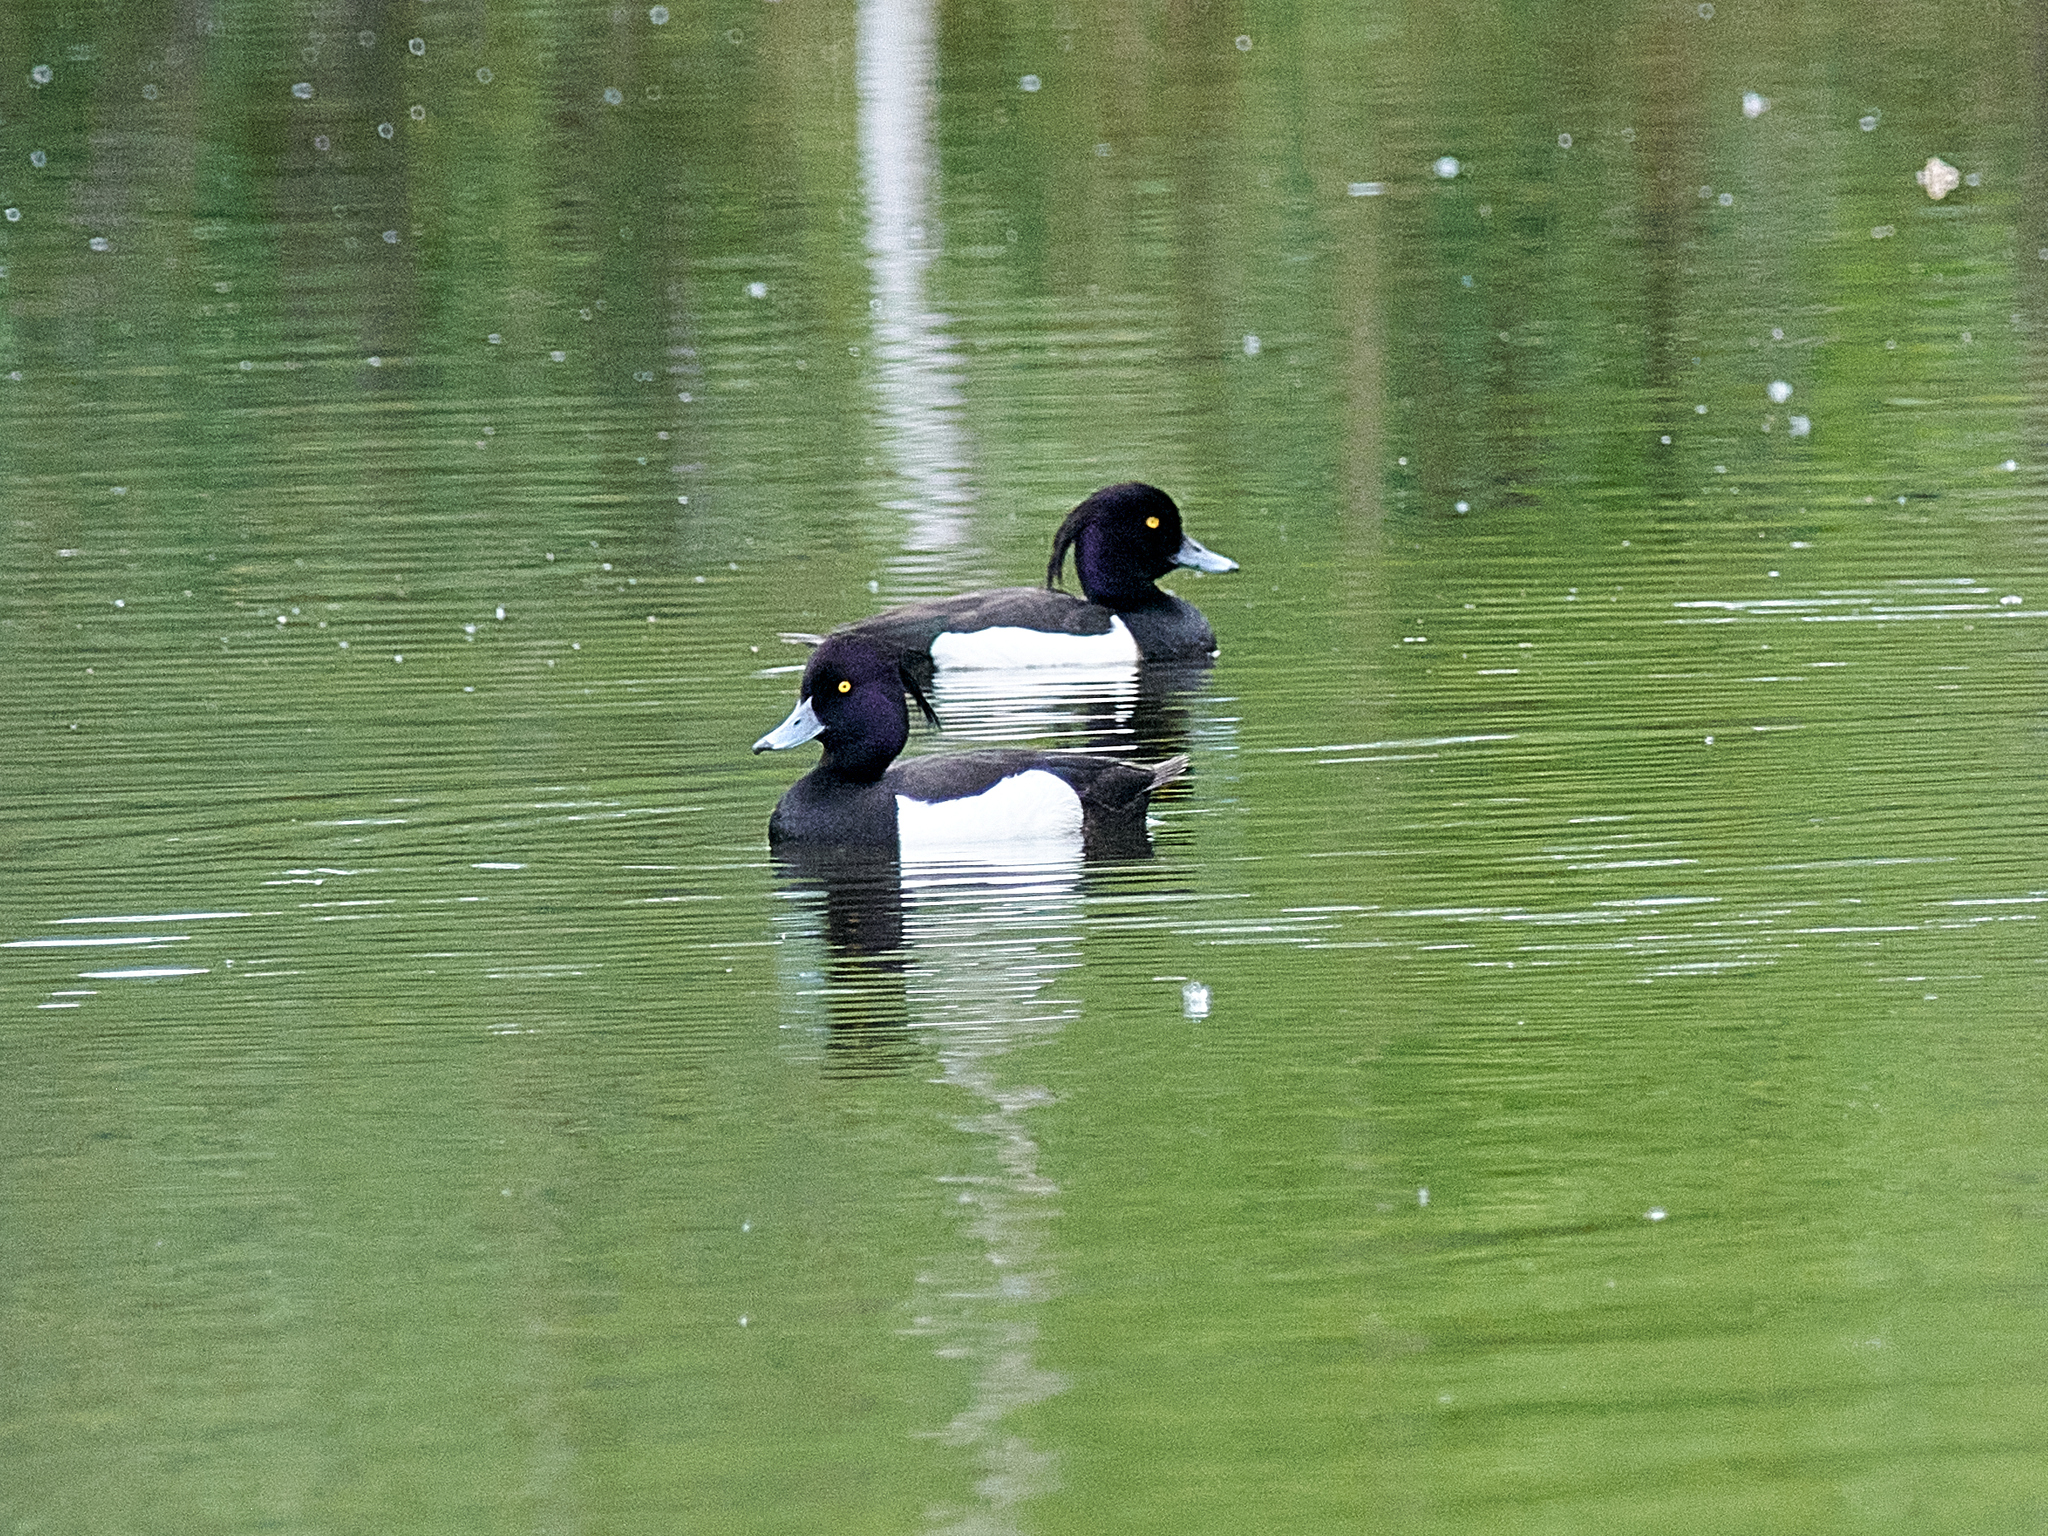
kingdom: Animalia
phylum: Chordata
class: Aves
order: Anseriformes
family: Anatidae
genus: Aythya
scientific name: Aythya fuligula
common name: Tufted duck
